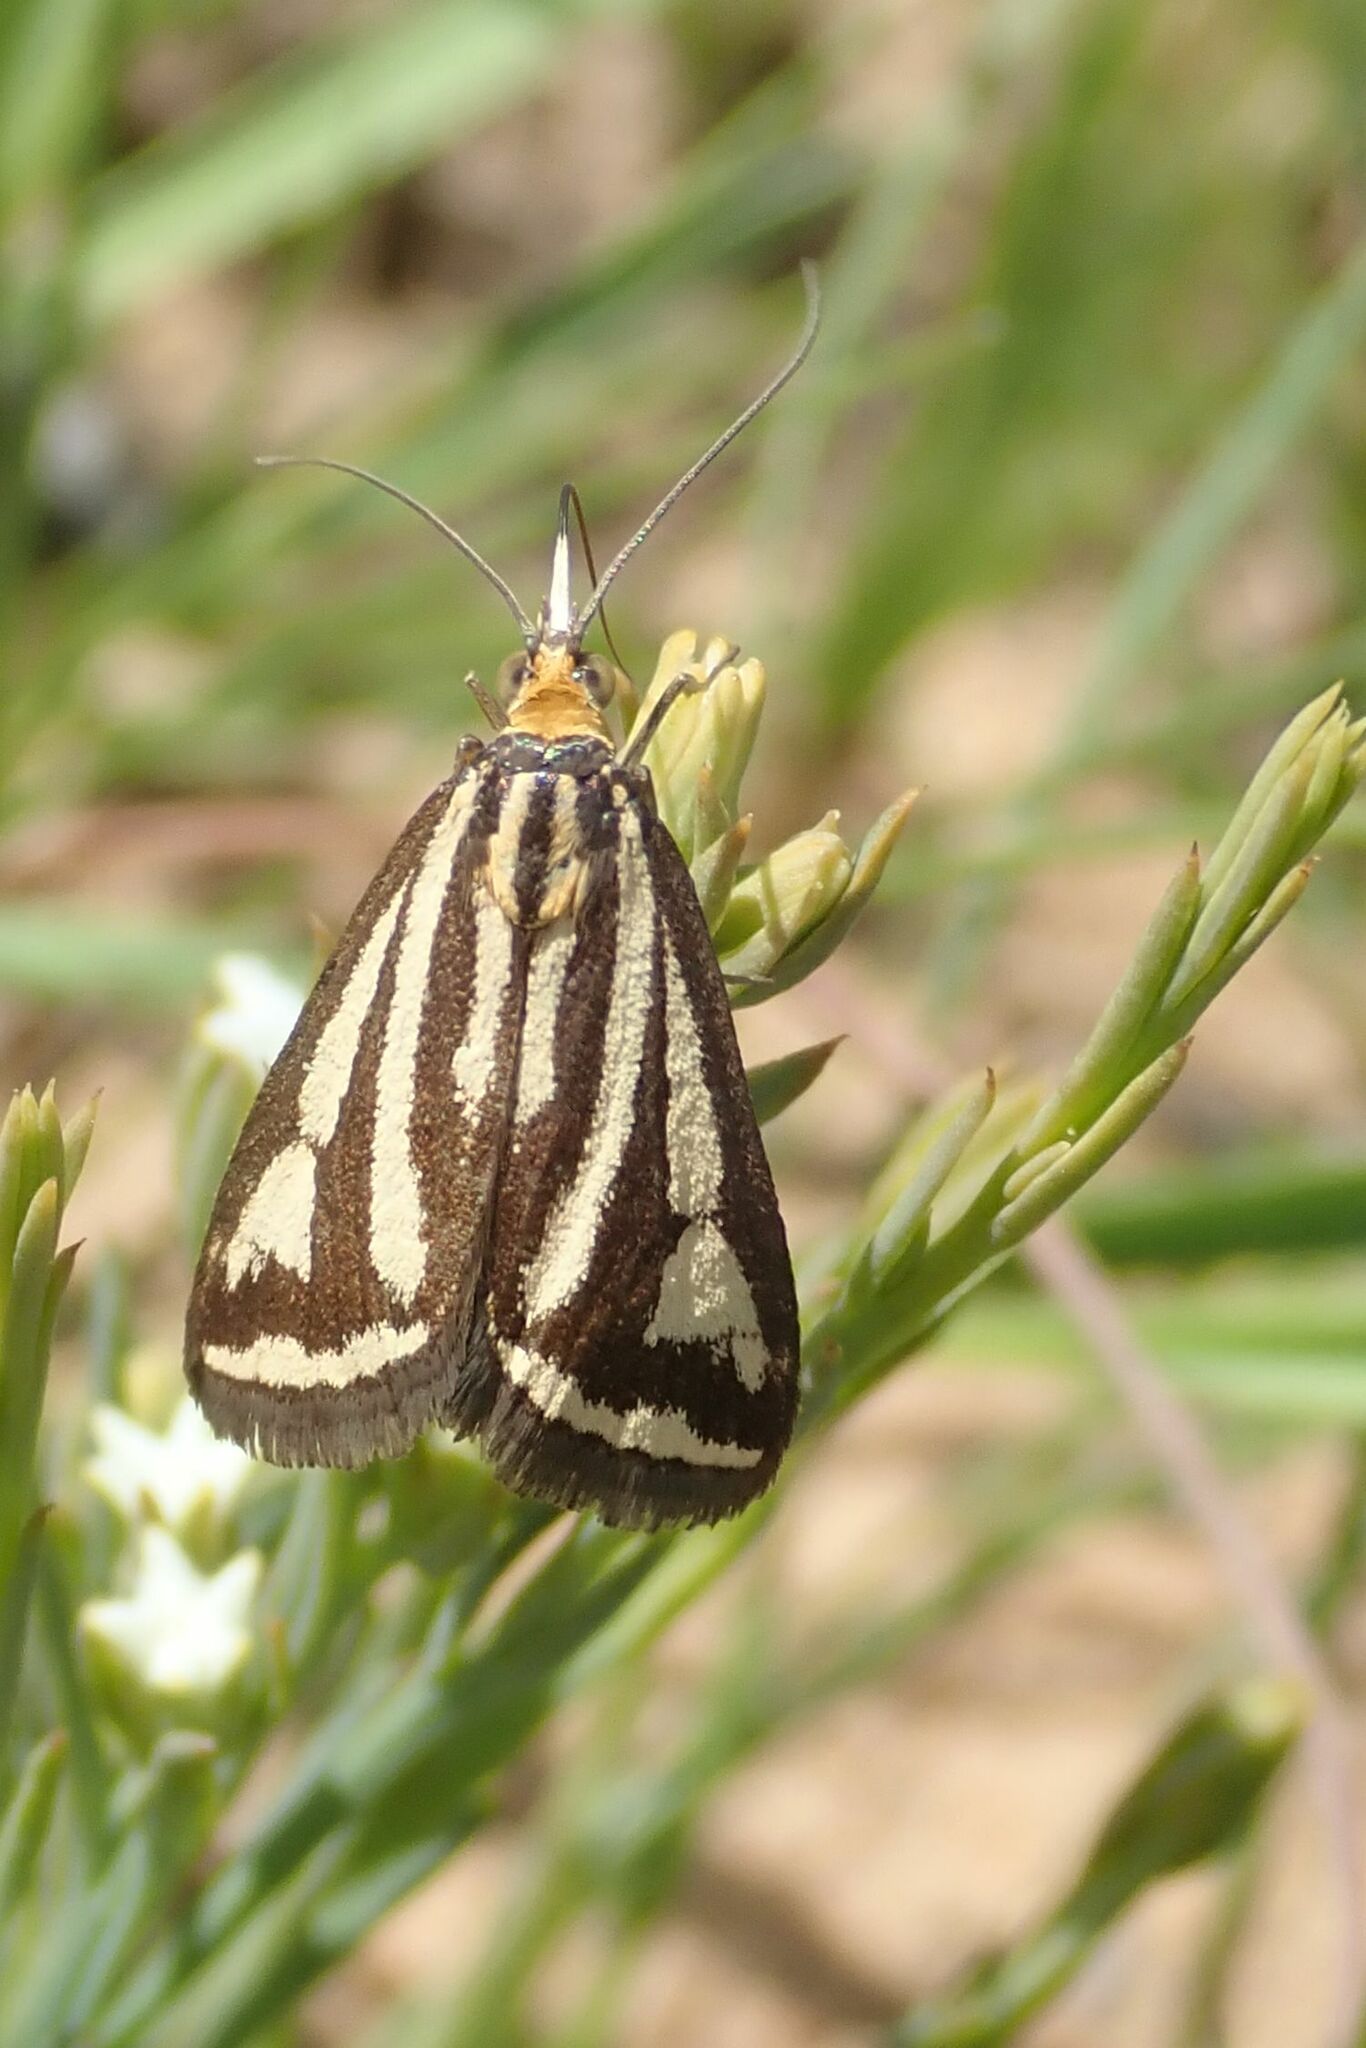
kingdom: Animalia
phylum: Arthropoda
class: Insecta
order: Lepidoptera
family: Crambidae
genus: Loxostege
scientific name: Loxostege venustalis
